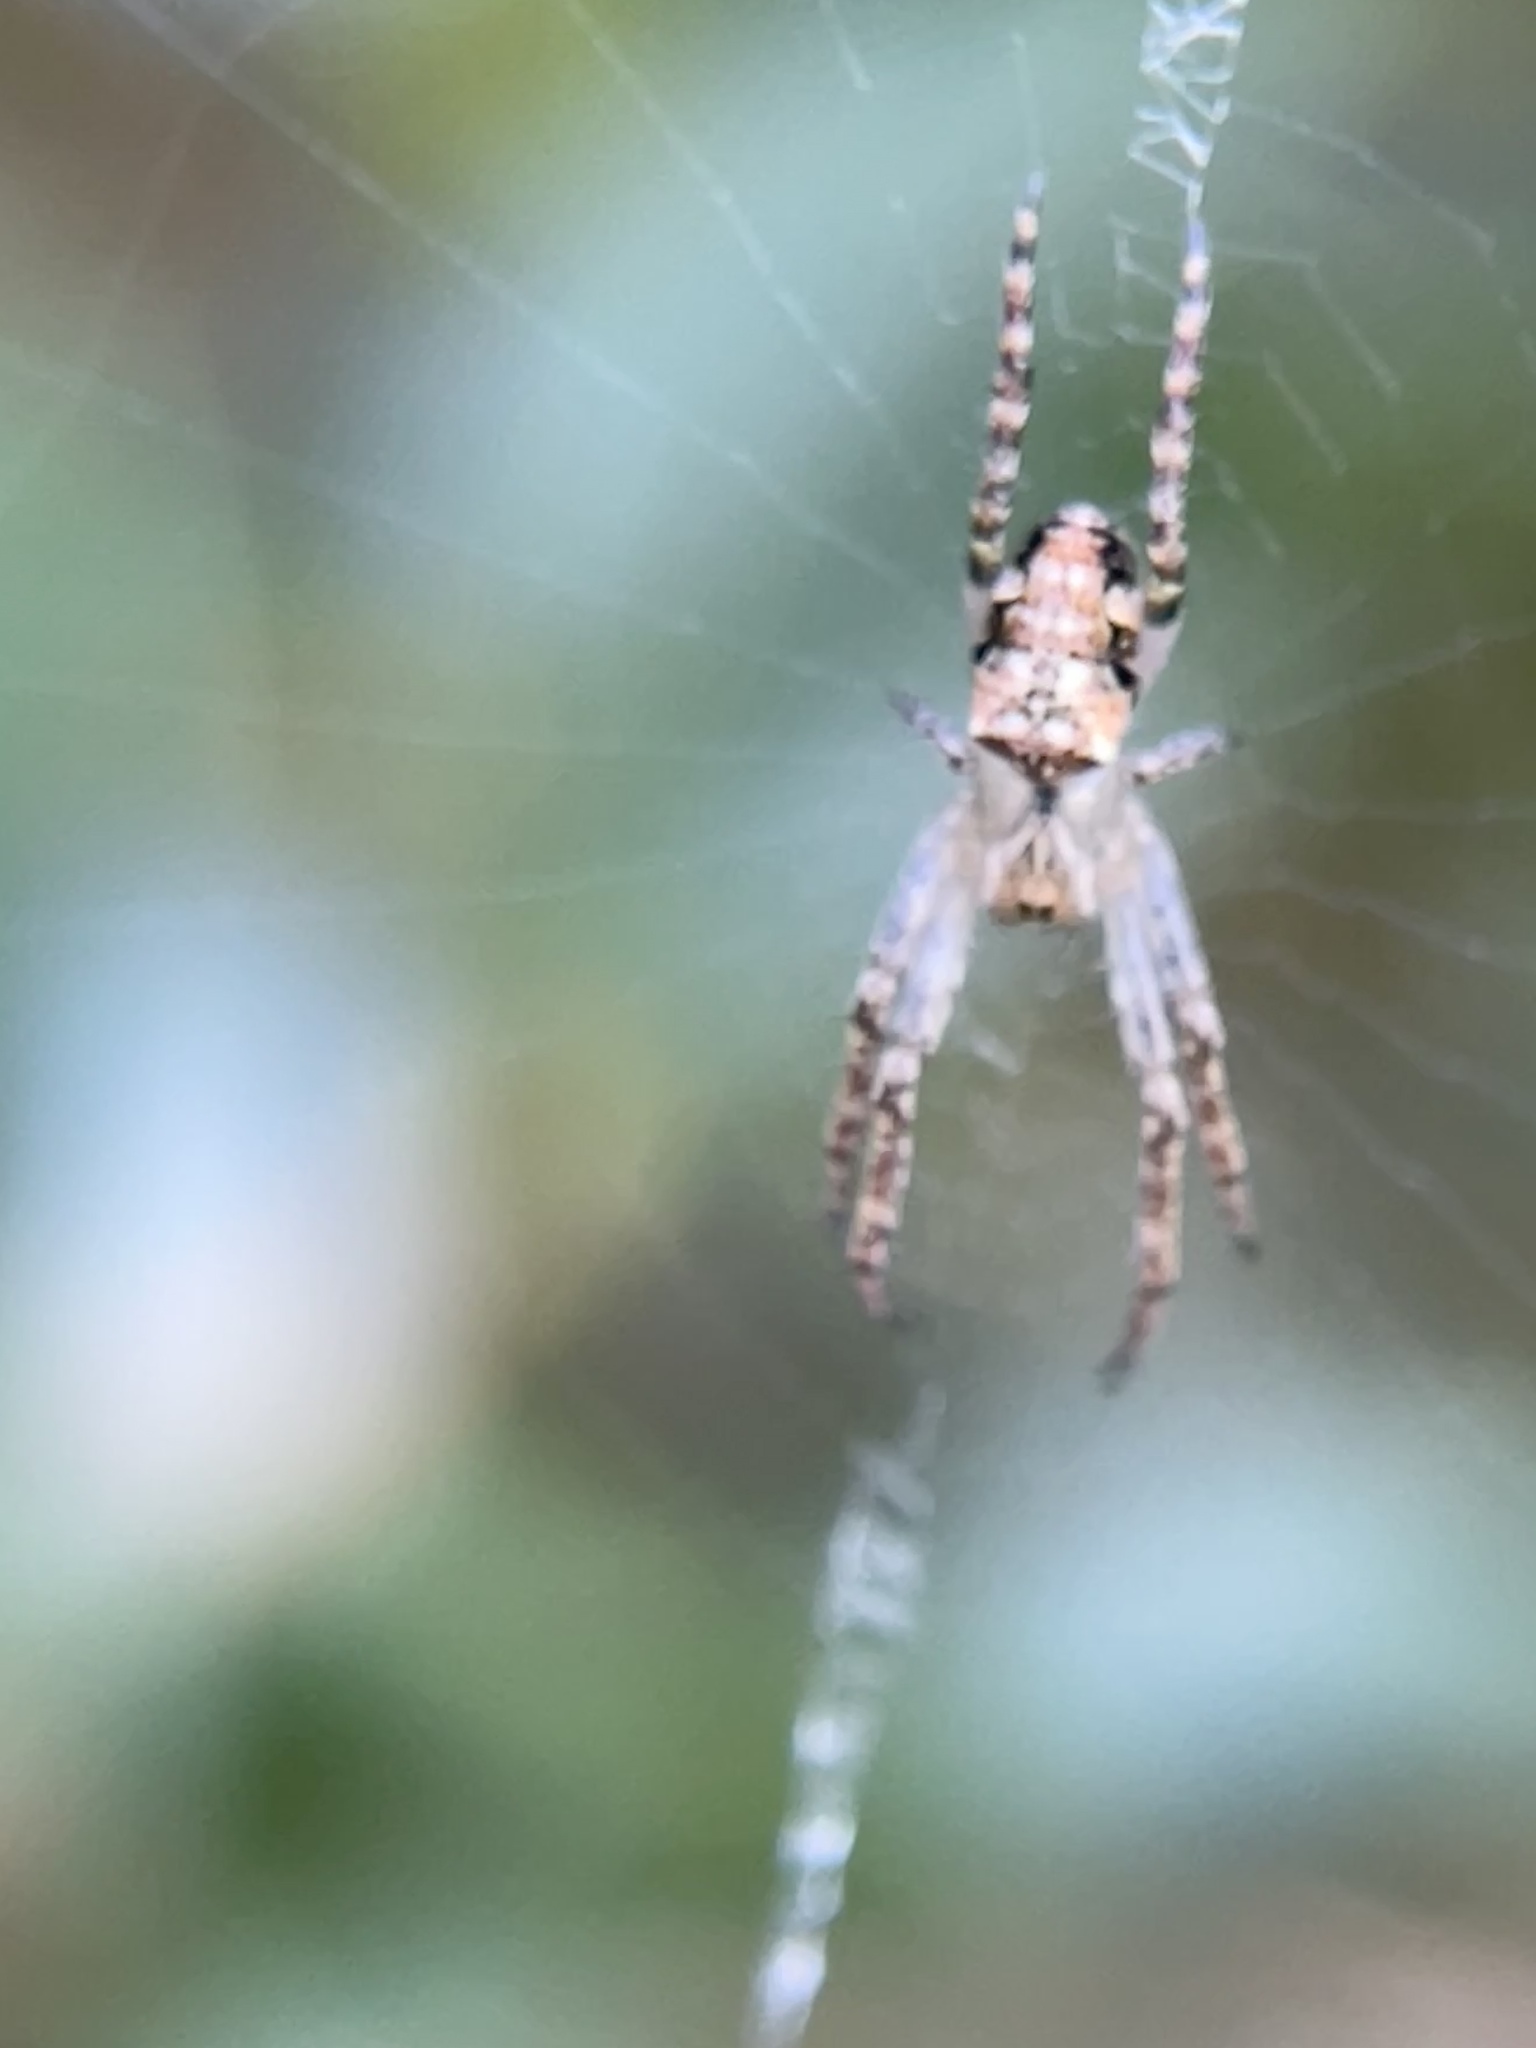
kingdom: Animalia
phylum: Arthropoda
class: Arachnida
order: Araneae
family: Araneidae
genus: Plebs
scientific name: Plebs eburnus
